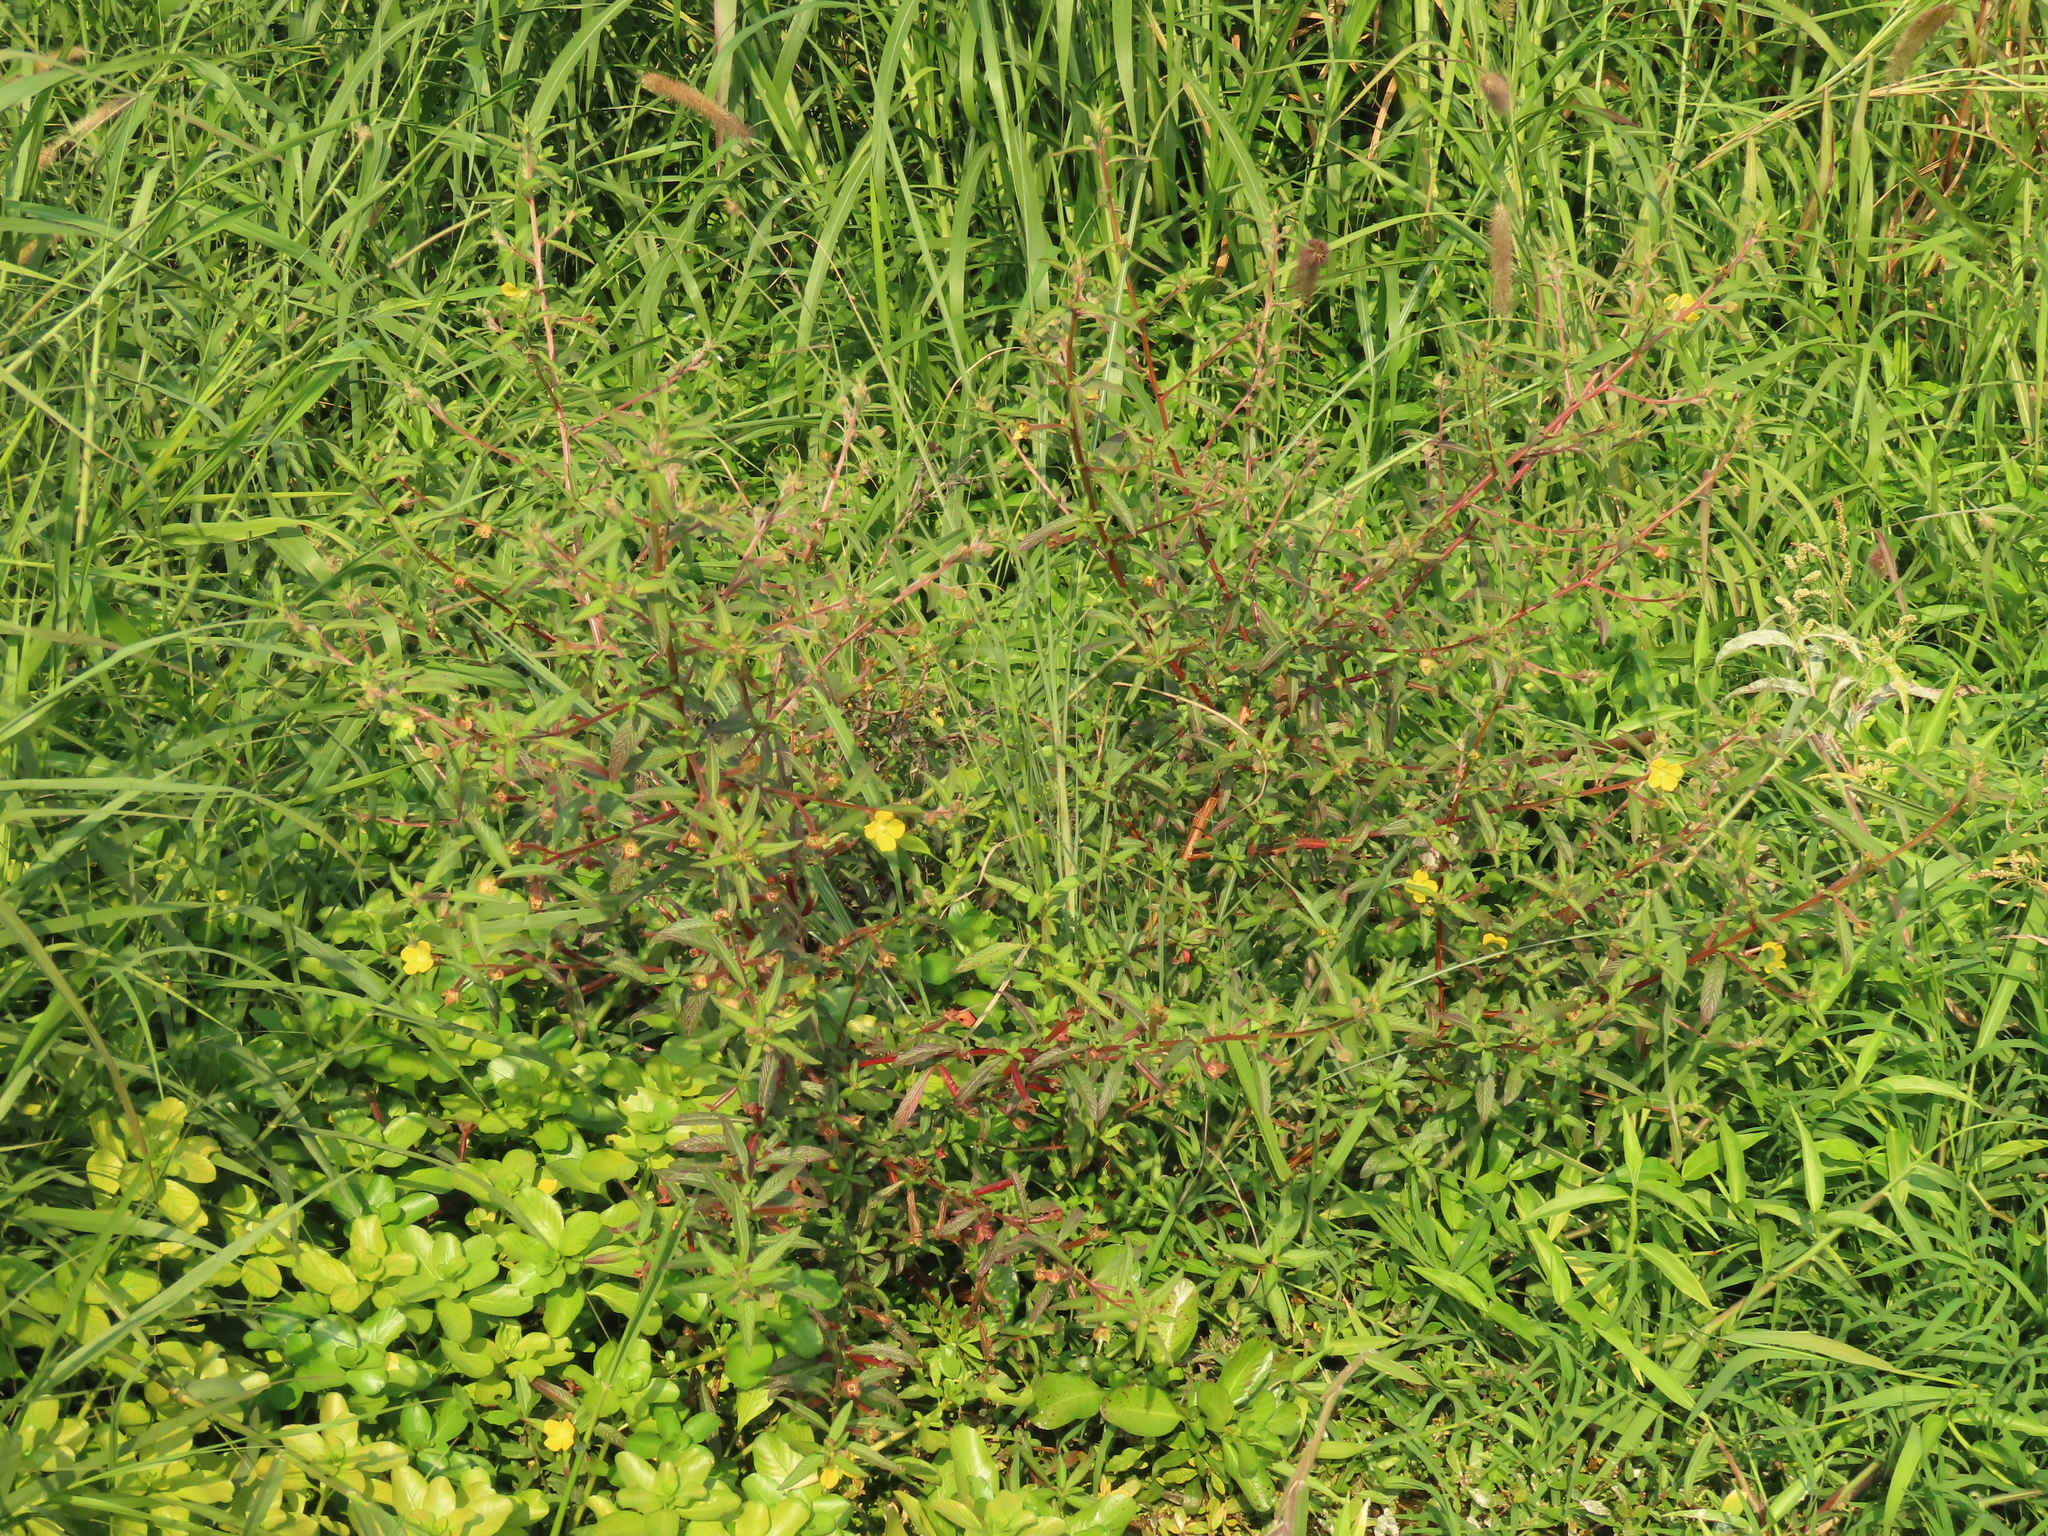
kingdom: Plantae
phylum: Tracheophyta
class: Magnoliopsida
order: Myrtales
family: Onagraceae
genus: Ludwigia
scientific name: Ludwigia octovalvis
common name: Water-primrose
